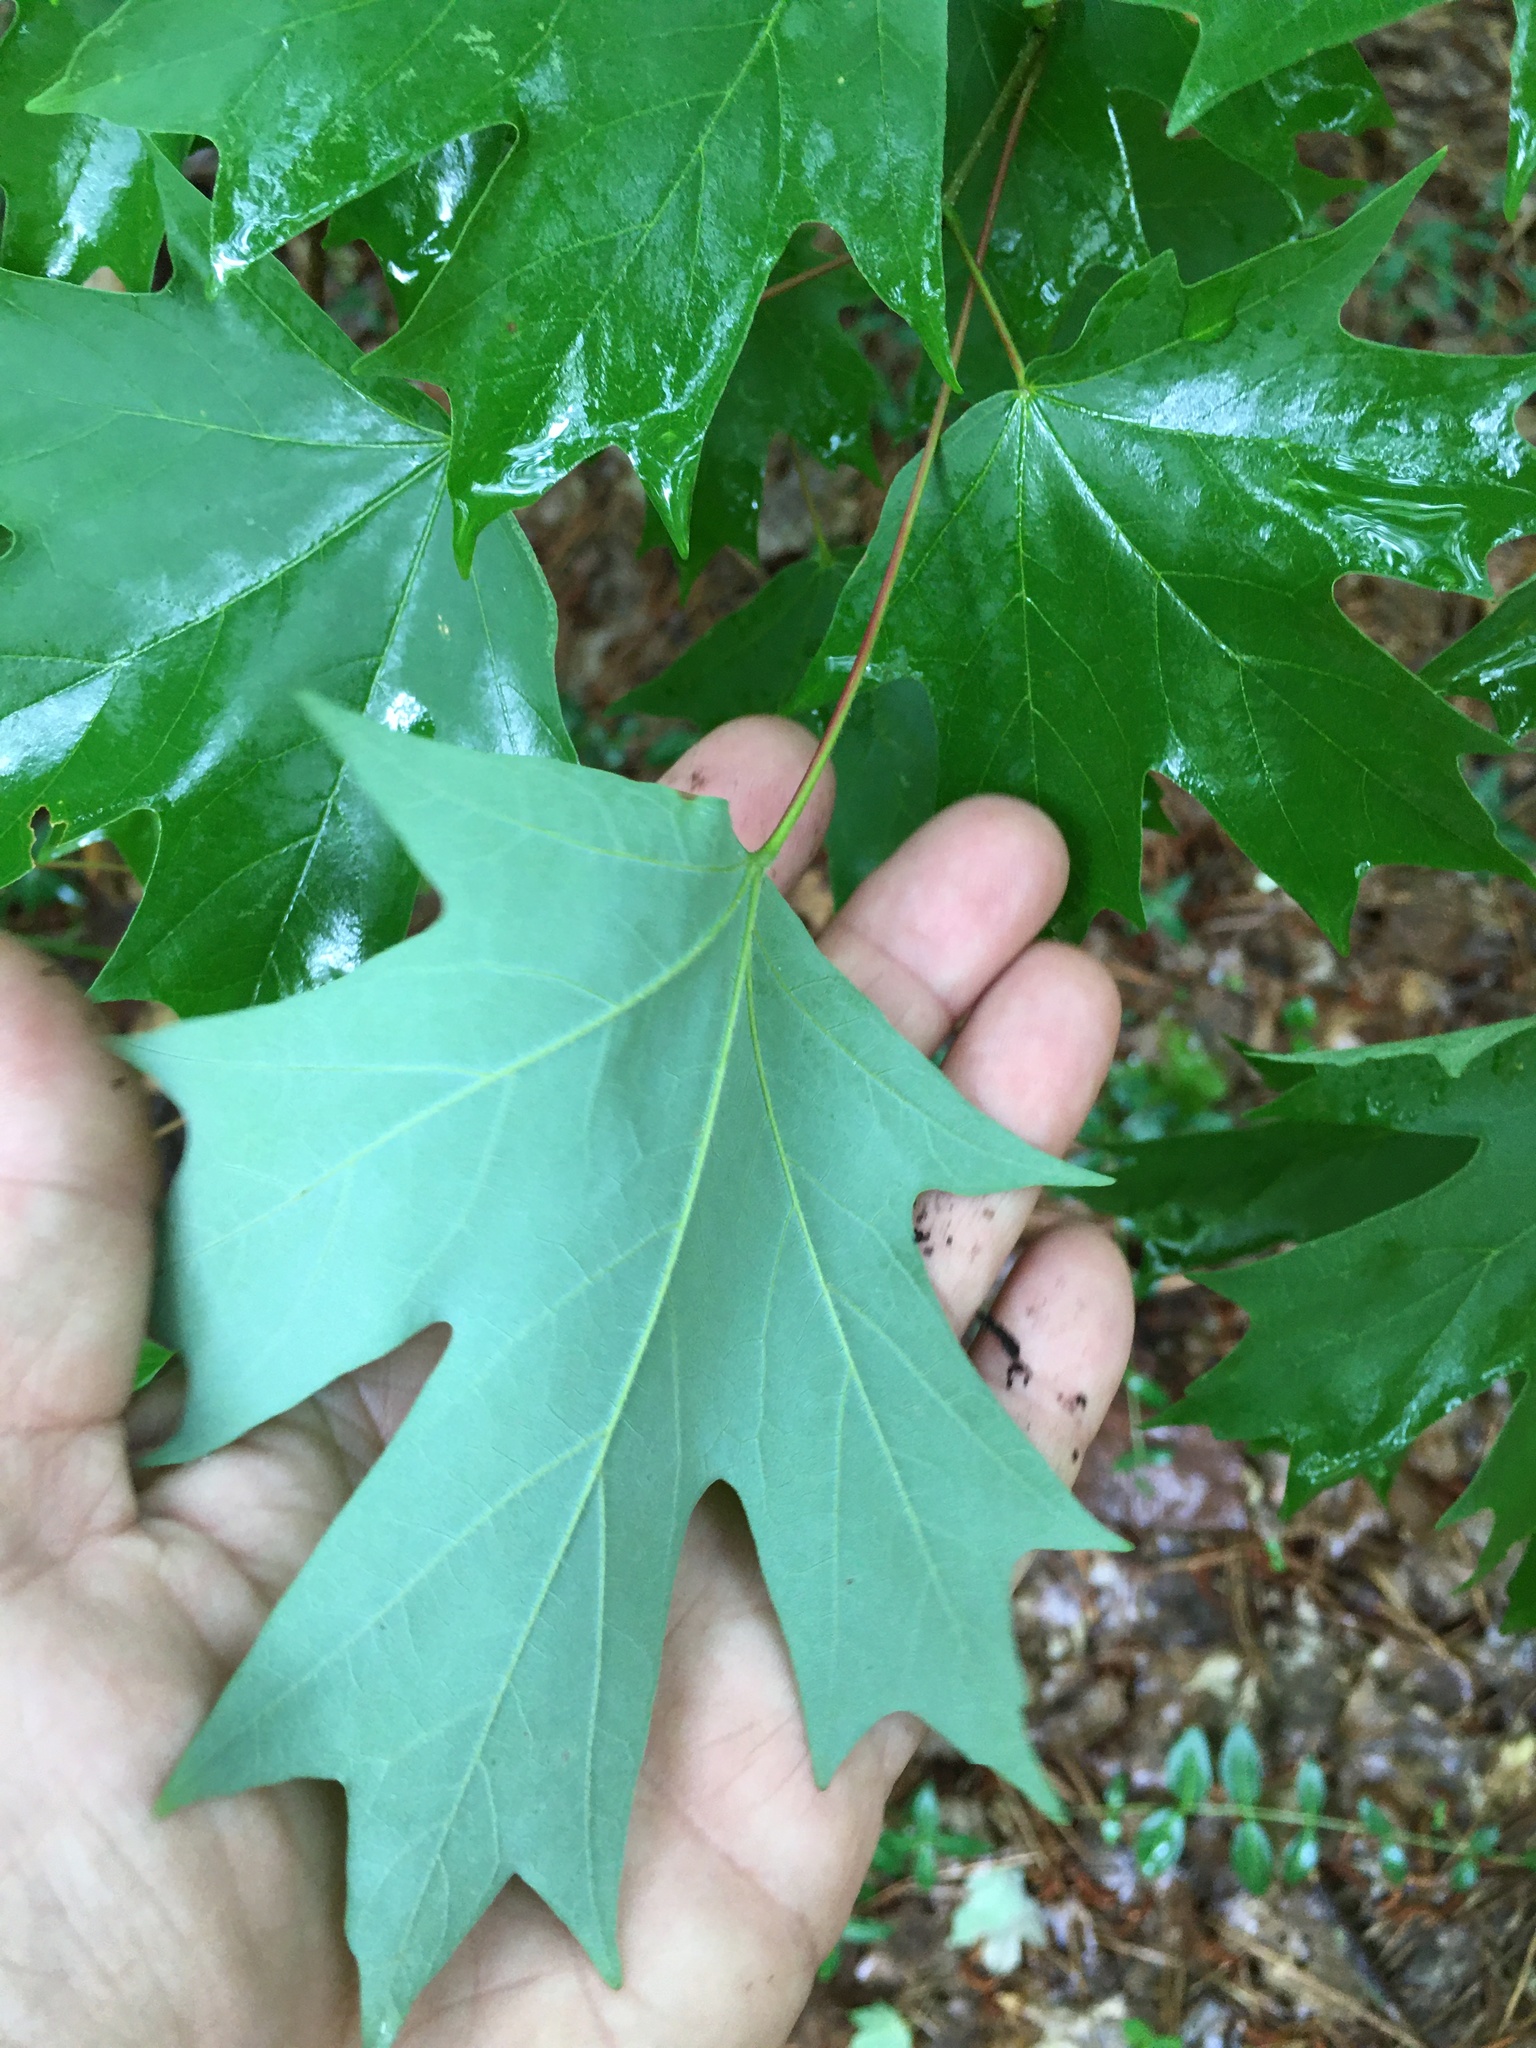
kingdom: Plantae
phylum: Tracheophyta
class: Magnoliopsida
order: Sapindales
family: Sapindaceae
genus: Acer
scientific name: Acer floridanum
